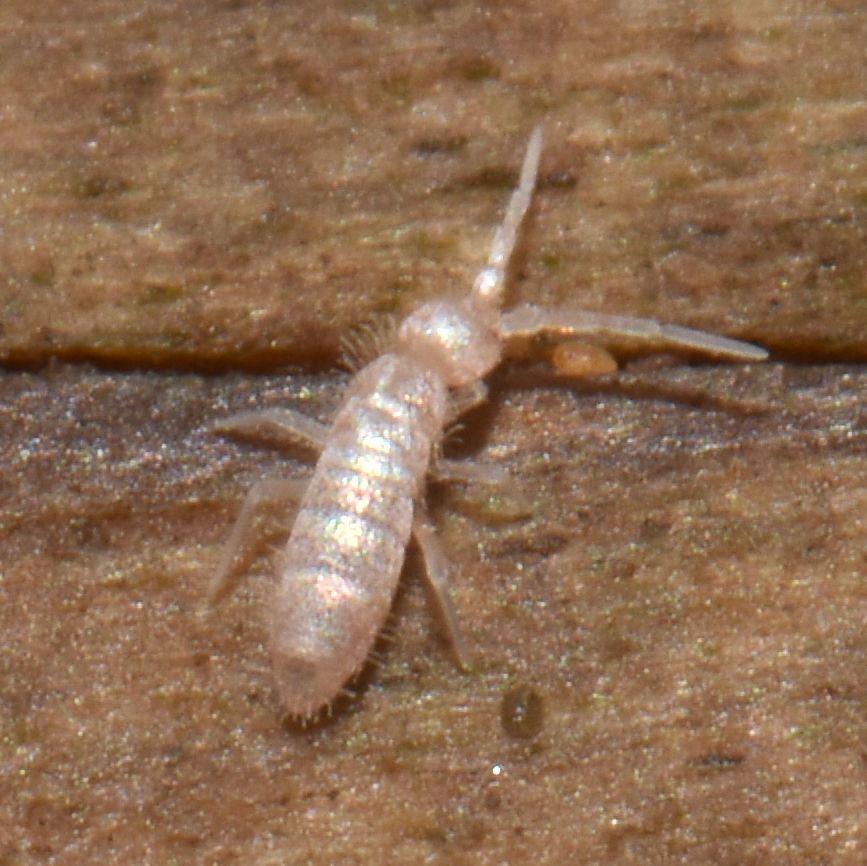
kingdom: Animalia
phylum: Arthropoda
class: Collembola
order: Entomobryomorpha
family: Orchesellidae
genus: Heteromurus
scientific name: Heteromurus nitidus
